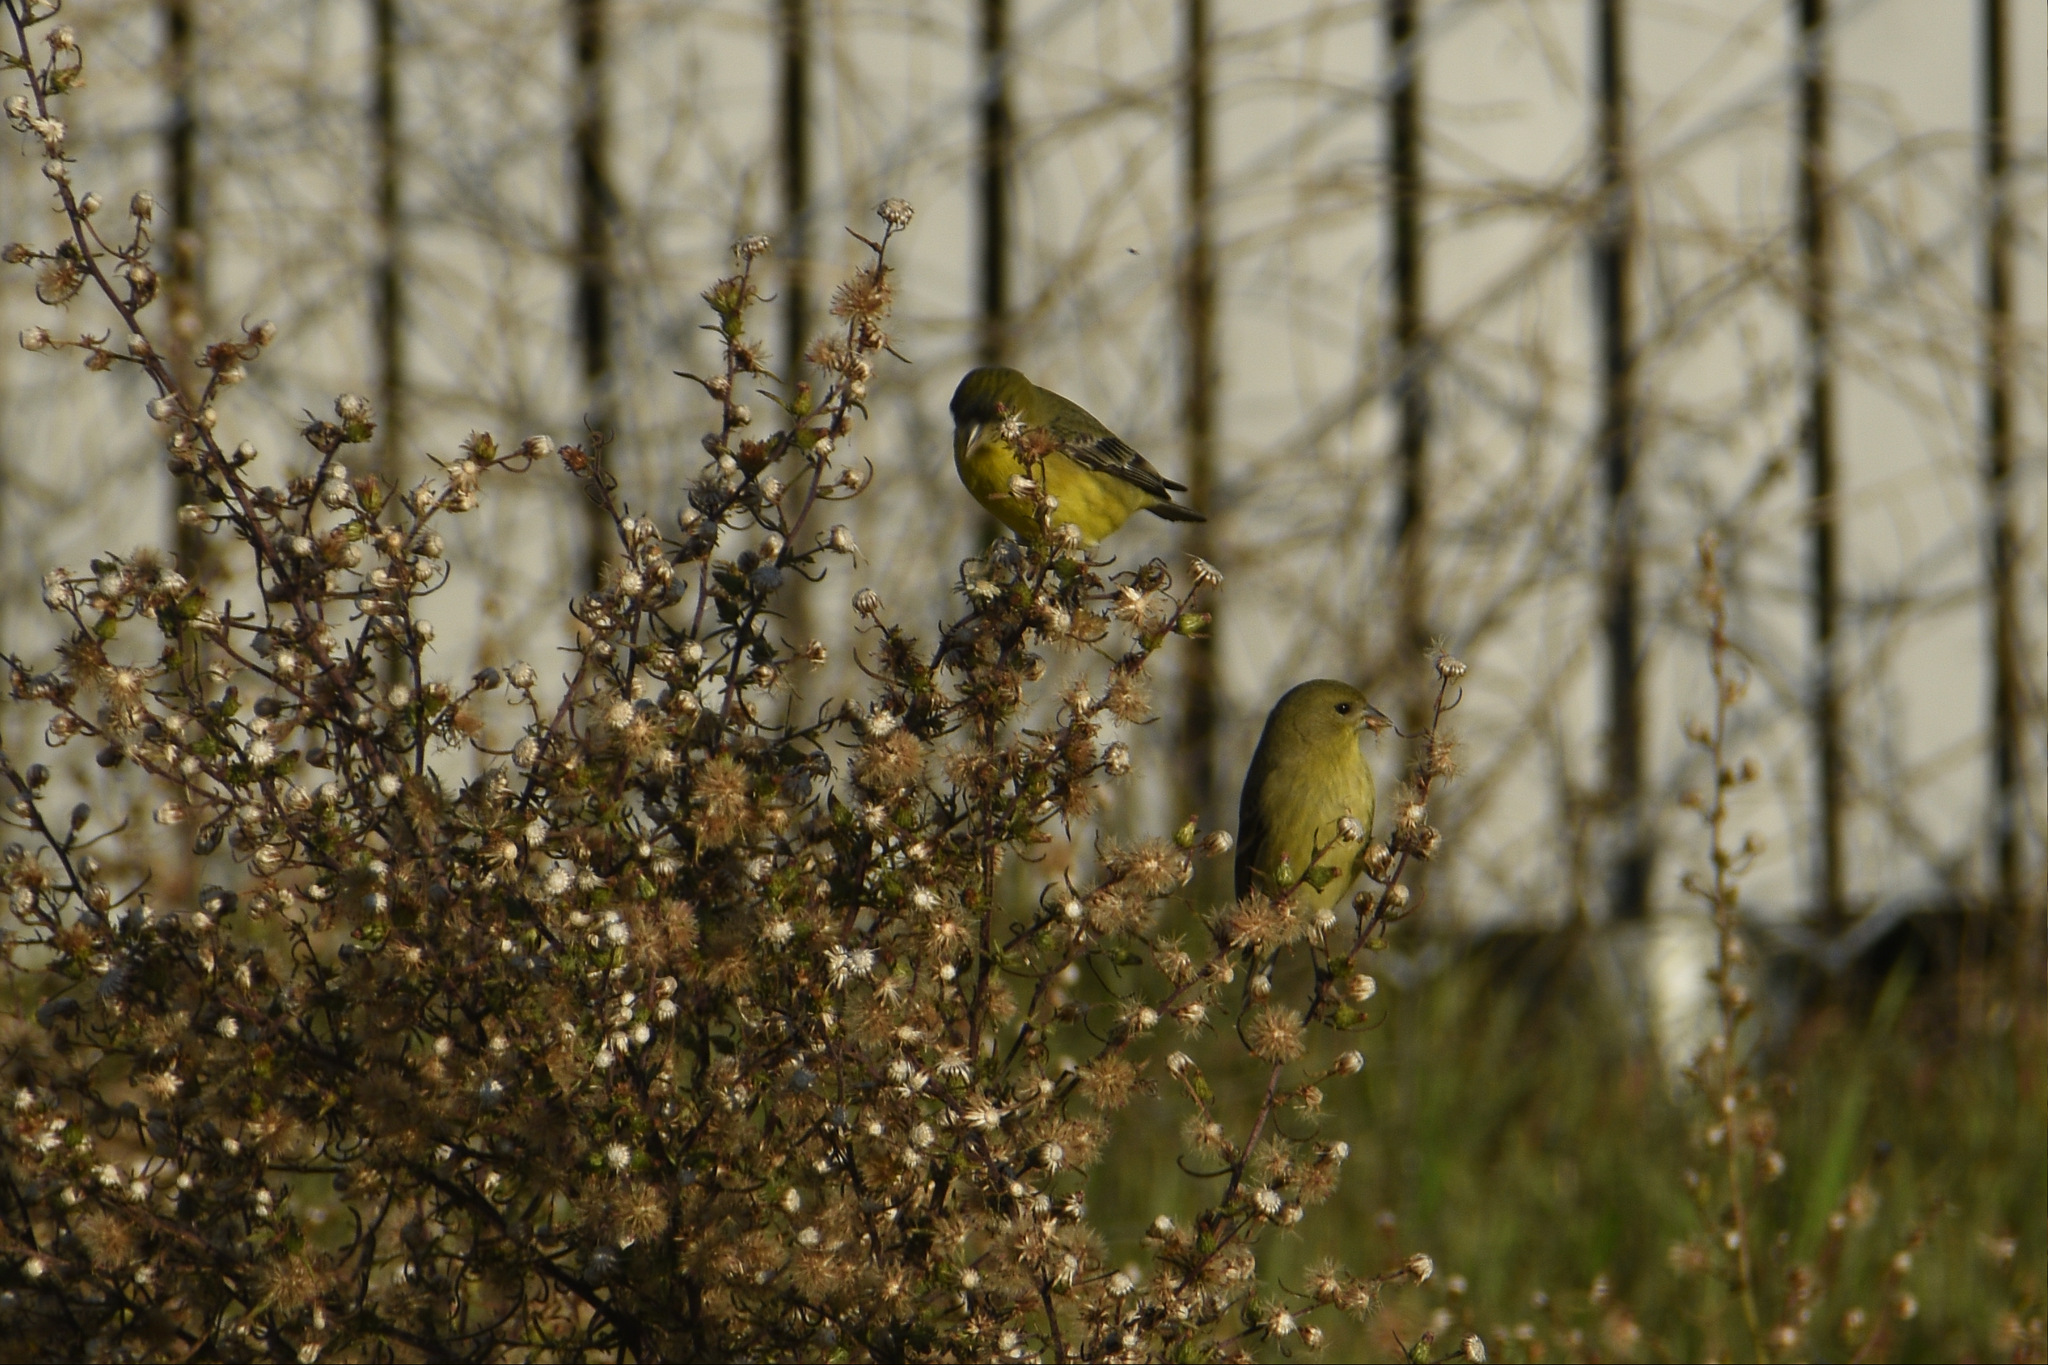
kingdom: Animalia
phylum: Chordata
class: Aves
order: Passeriformes
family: Fringillidae
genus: Spinus
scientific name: Spinus psaltria
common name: Lesser goldfinch
